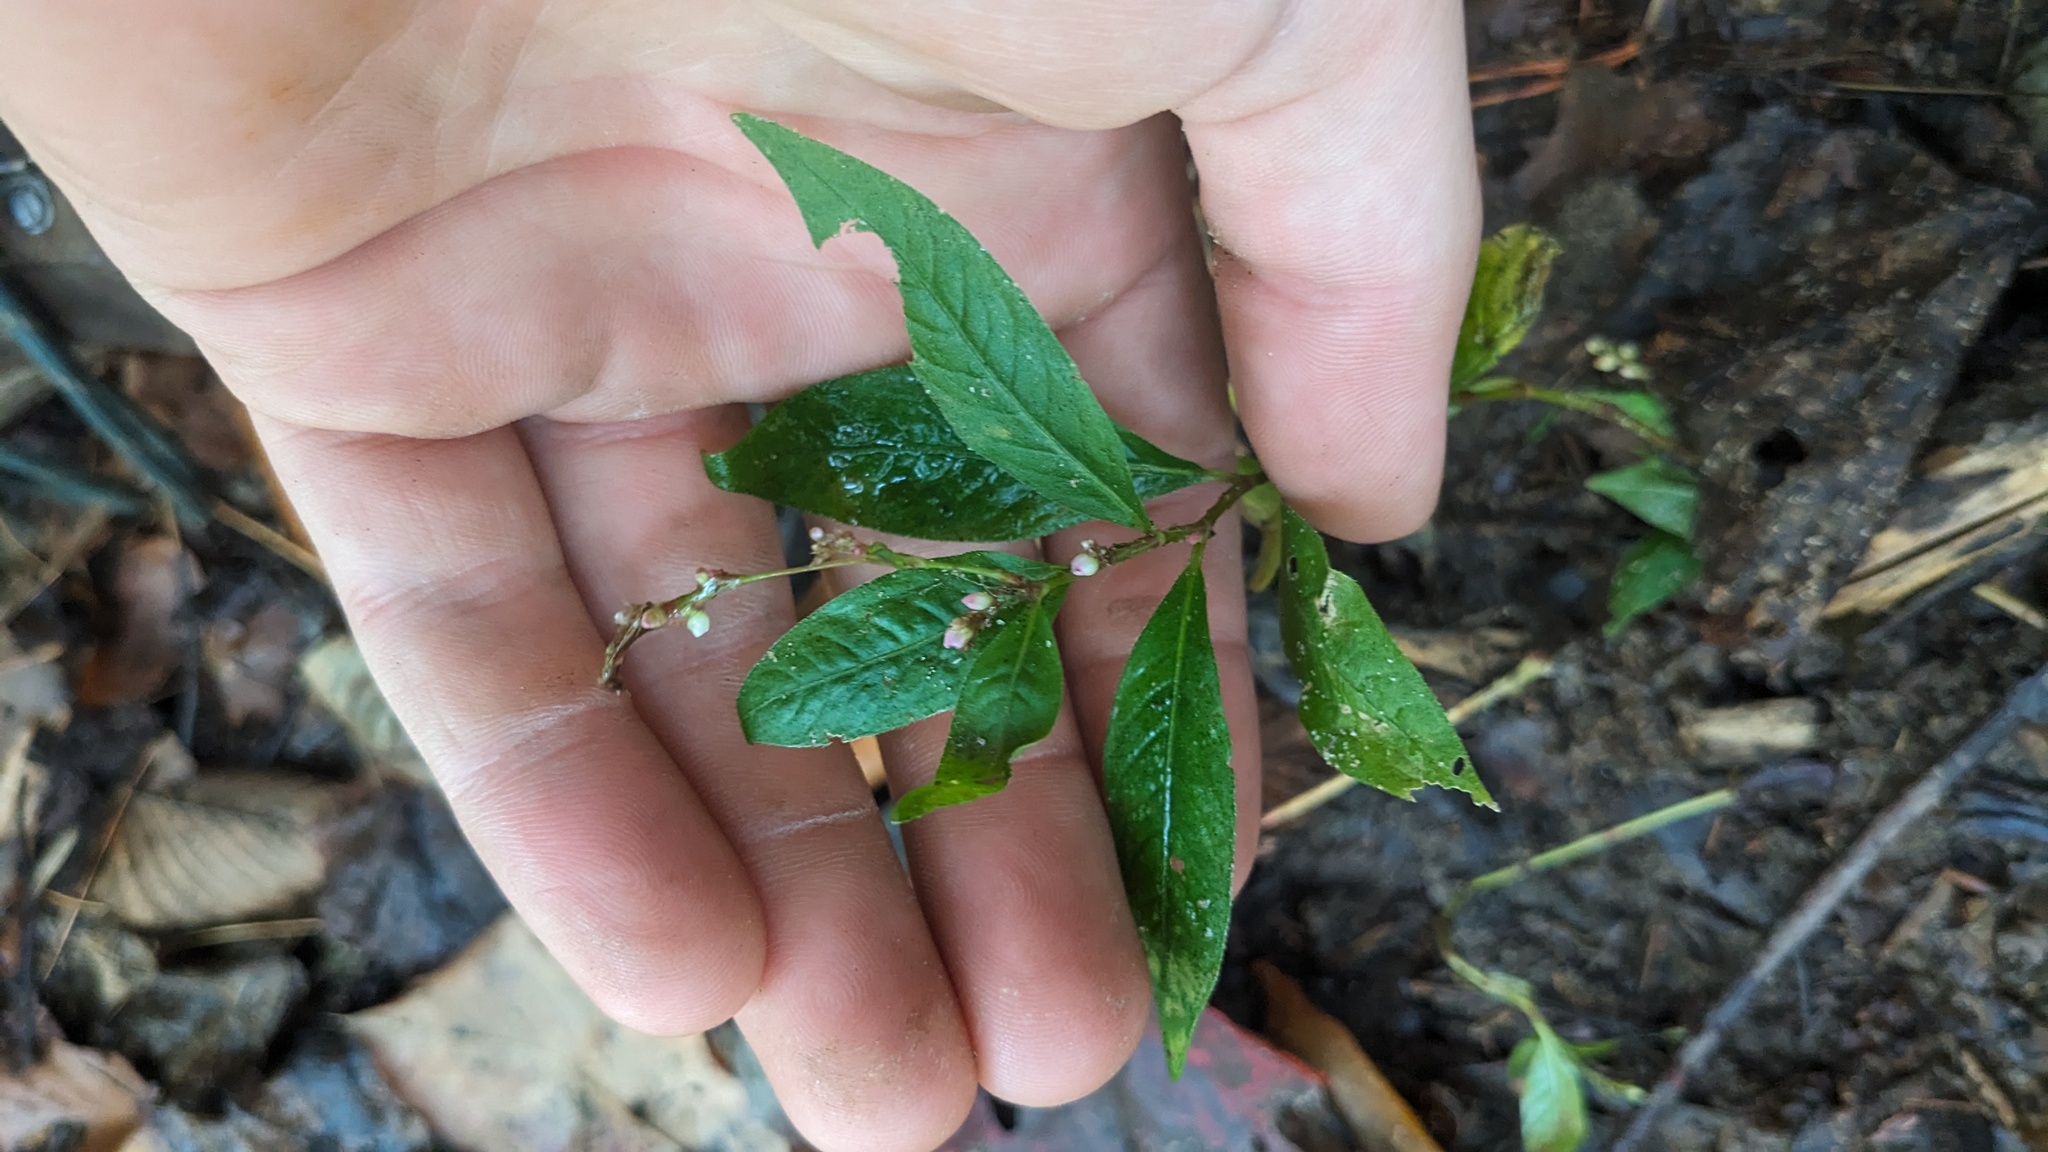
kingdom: Plantae
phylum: Tracheophyta
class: Magnoliopsida
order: Caryophyllales
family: Polygonaceae
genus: Persicaria
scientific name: Persicaria longiseta
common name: Bristly lady's-thumb
